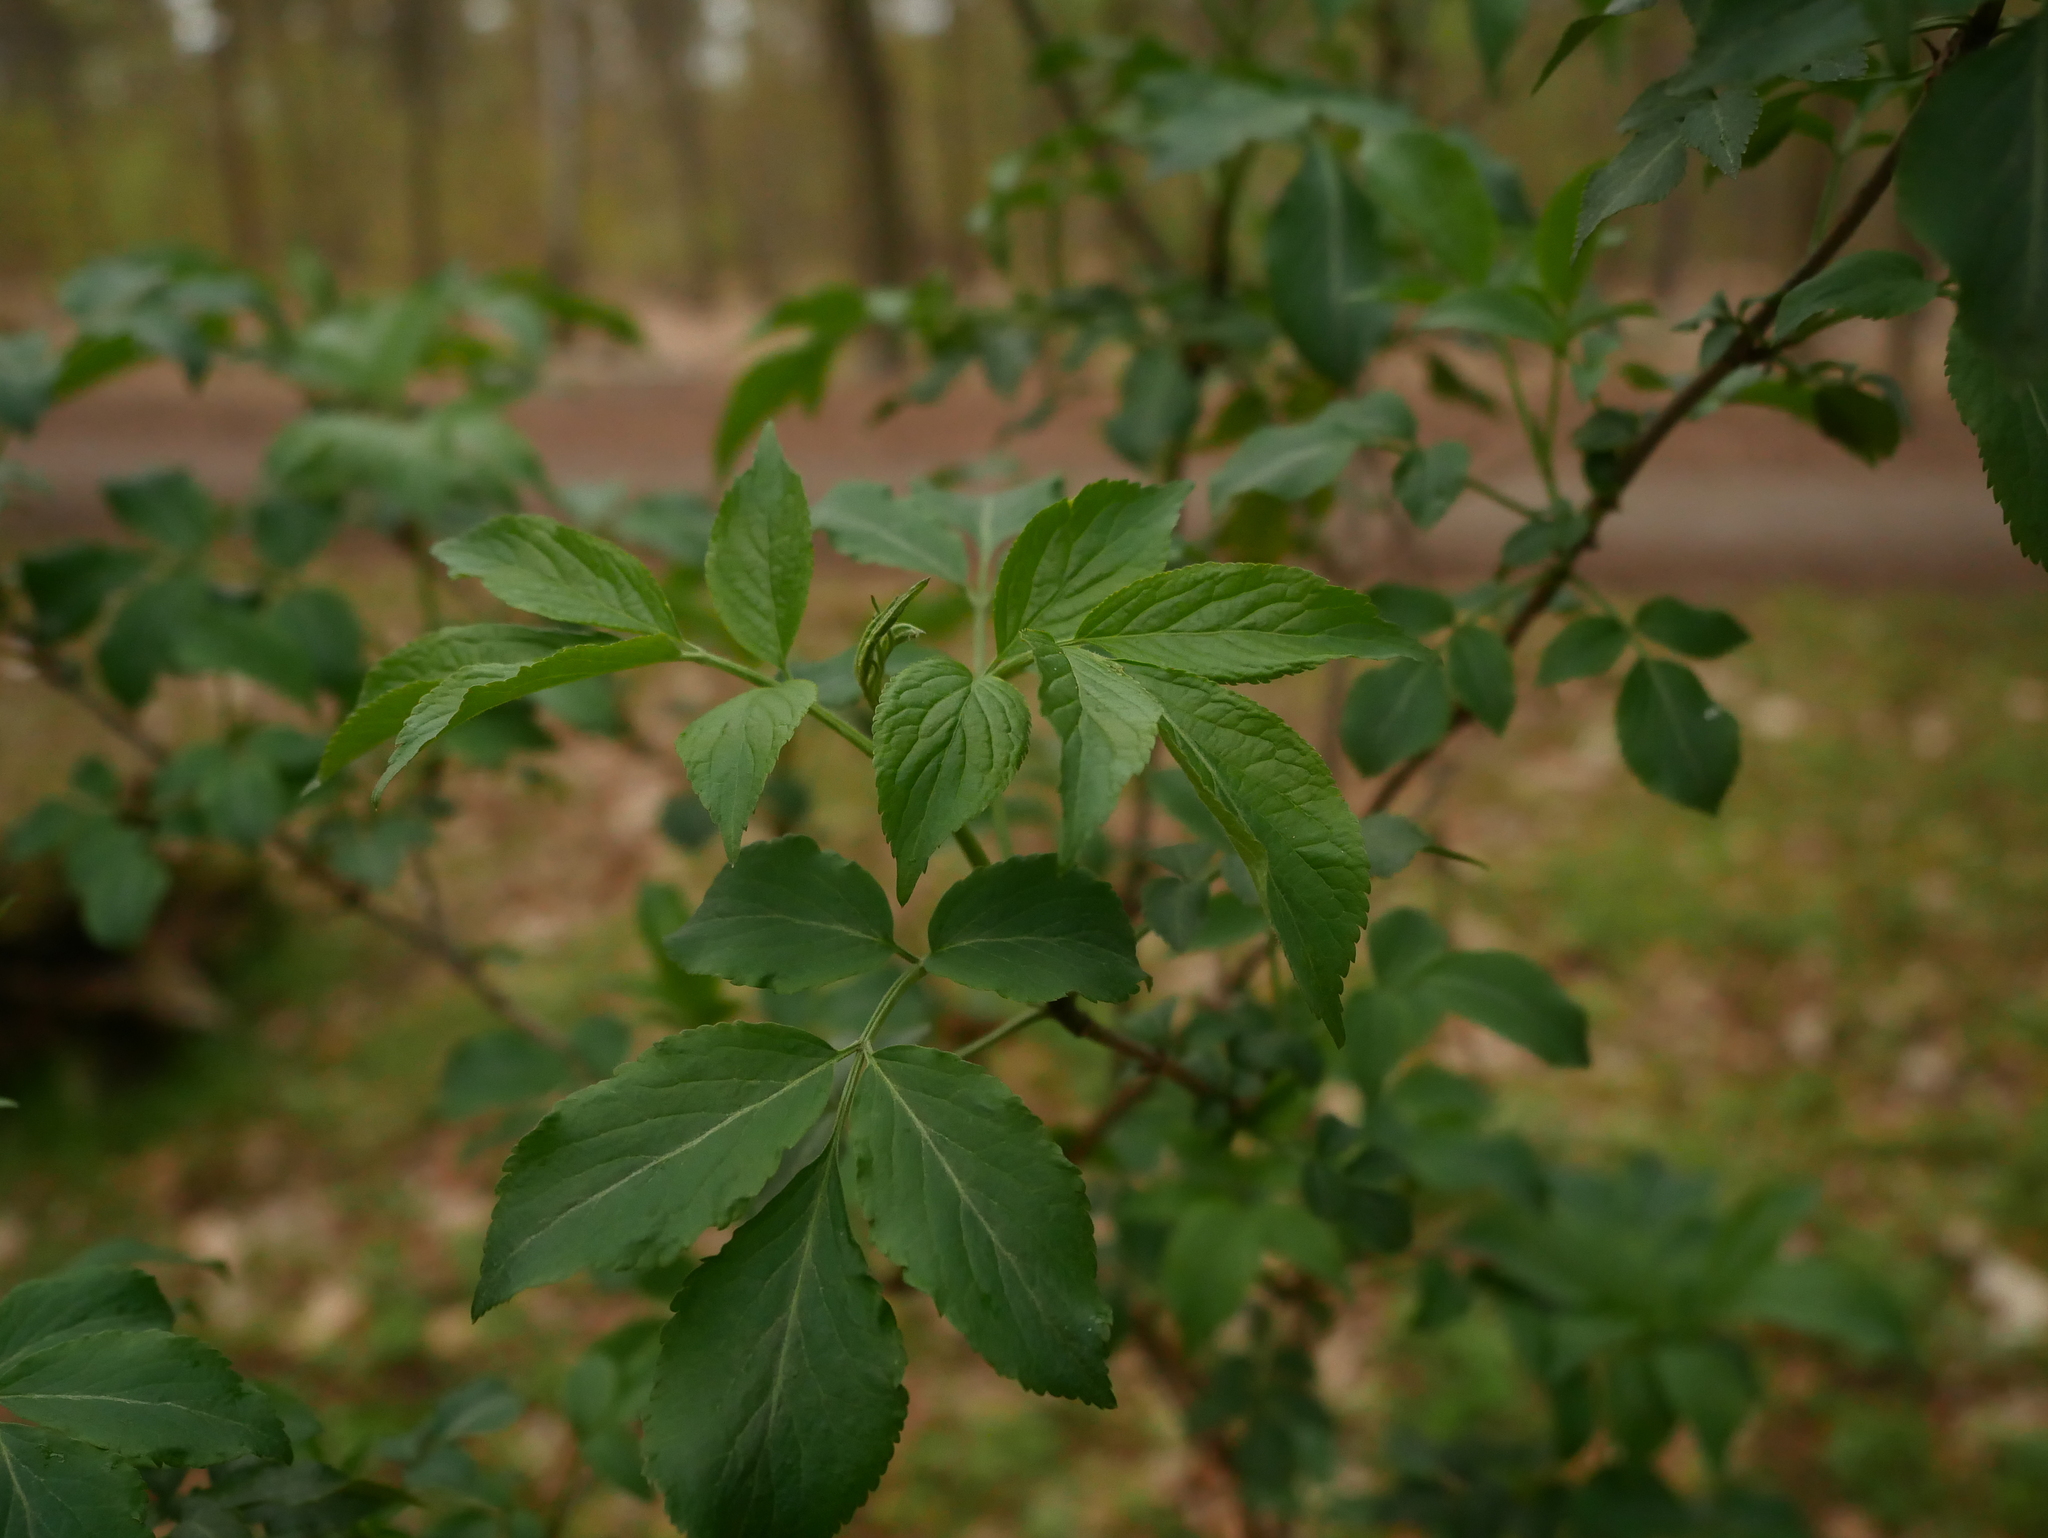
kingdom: Plantae
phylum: Tracheophyta
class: Magnoliopsida
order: Dipsacales
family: Viburnaceae
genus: Sambucus
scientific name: Sambucus nigra
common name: Elder
